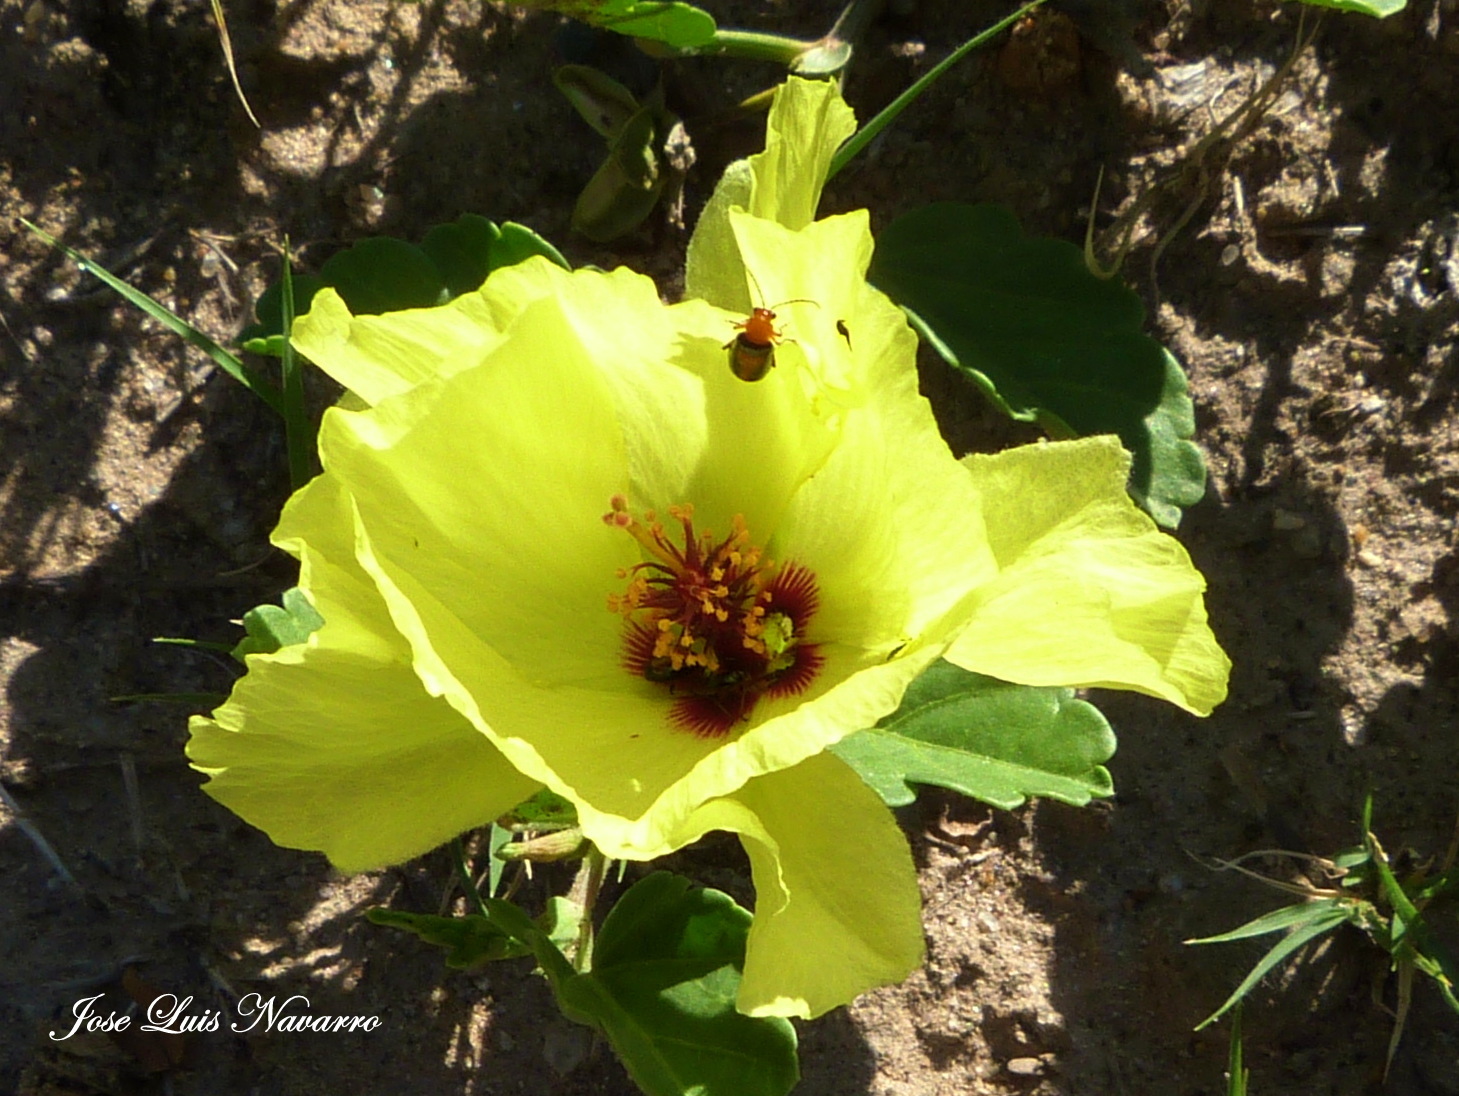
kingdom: Plantae
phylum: Tracheophyta
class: Magnoliopsida
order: Malvales
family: Malvaceae
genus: Cienfuegosia
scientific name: Cienfuegosia hispida
